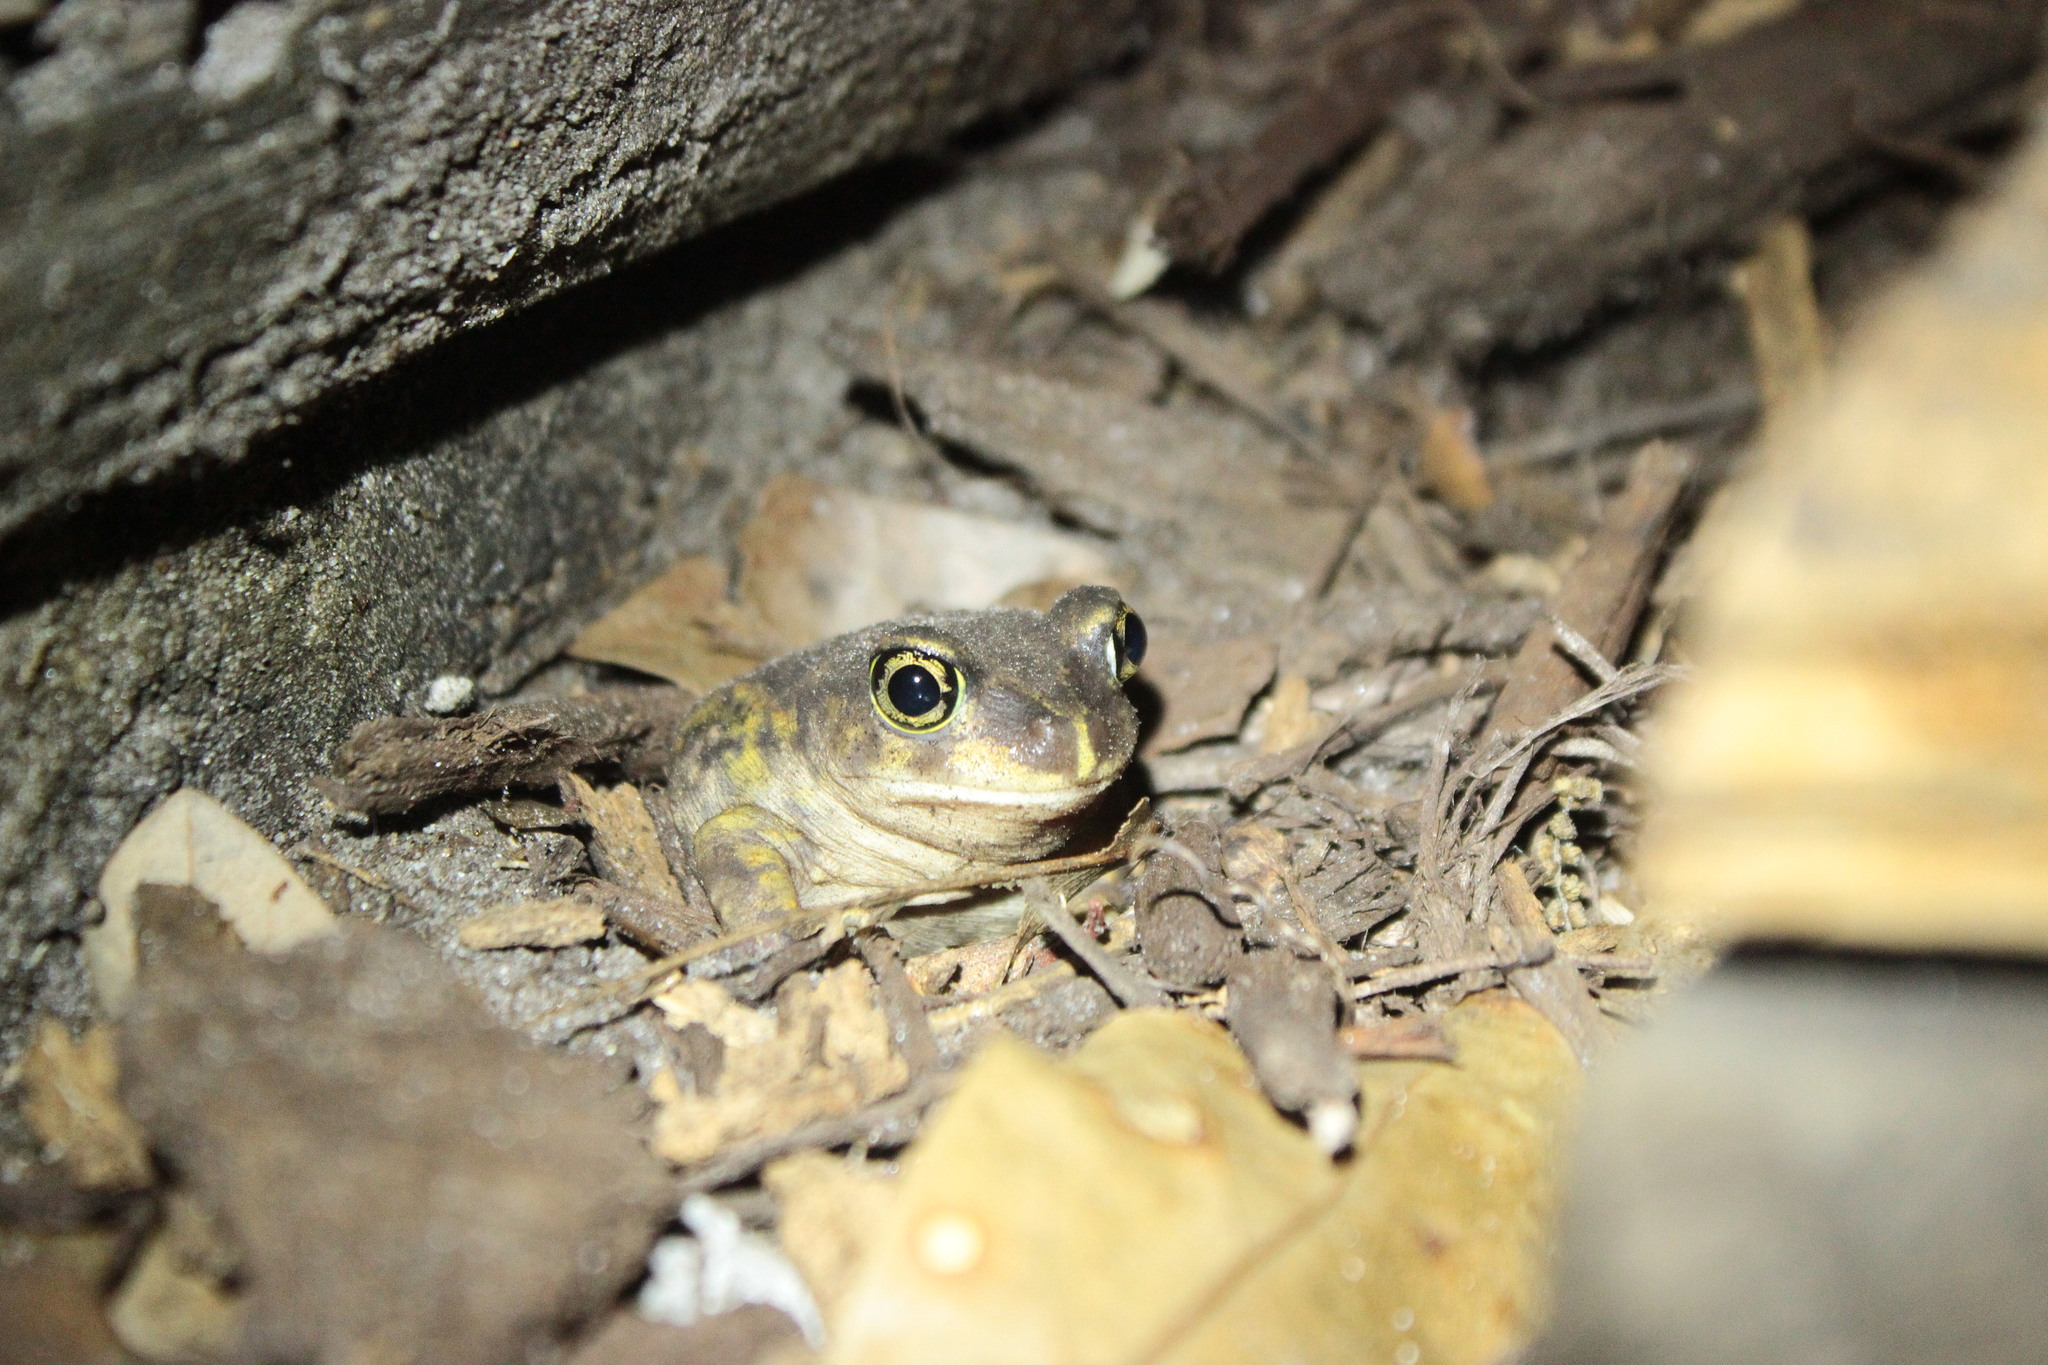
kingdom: Animalia
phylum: Chordata
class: Amphibia
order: Anura
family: Scaphiopodidae
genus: Scaphiopus
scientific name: Scaphiopus holbrookii
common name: Eastern spadefoot toad
